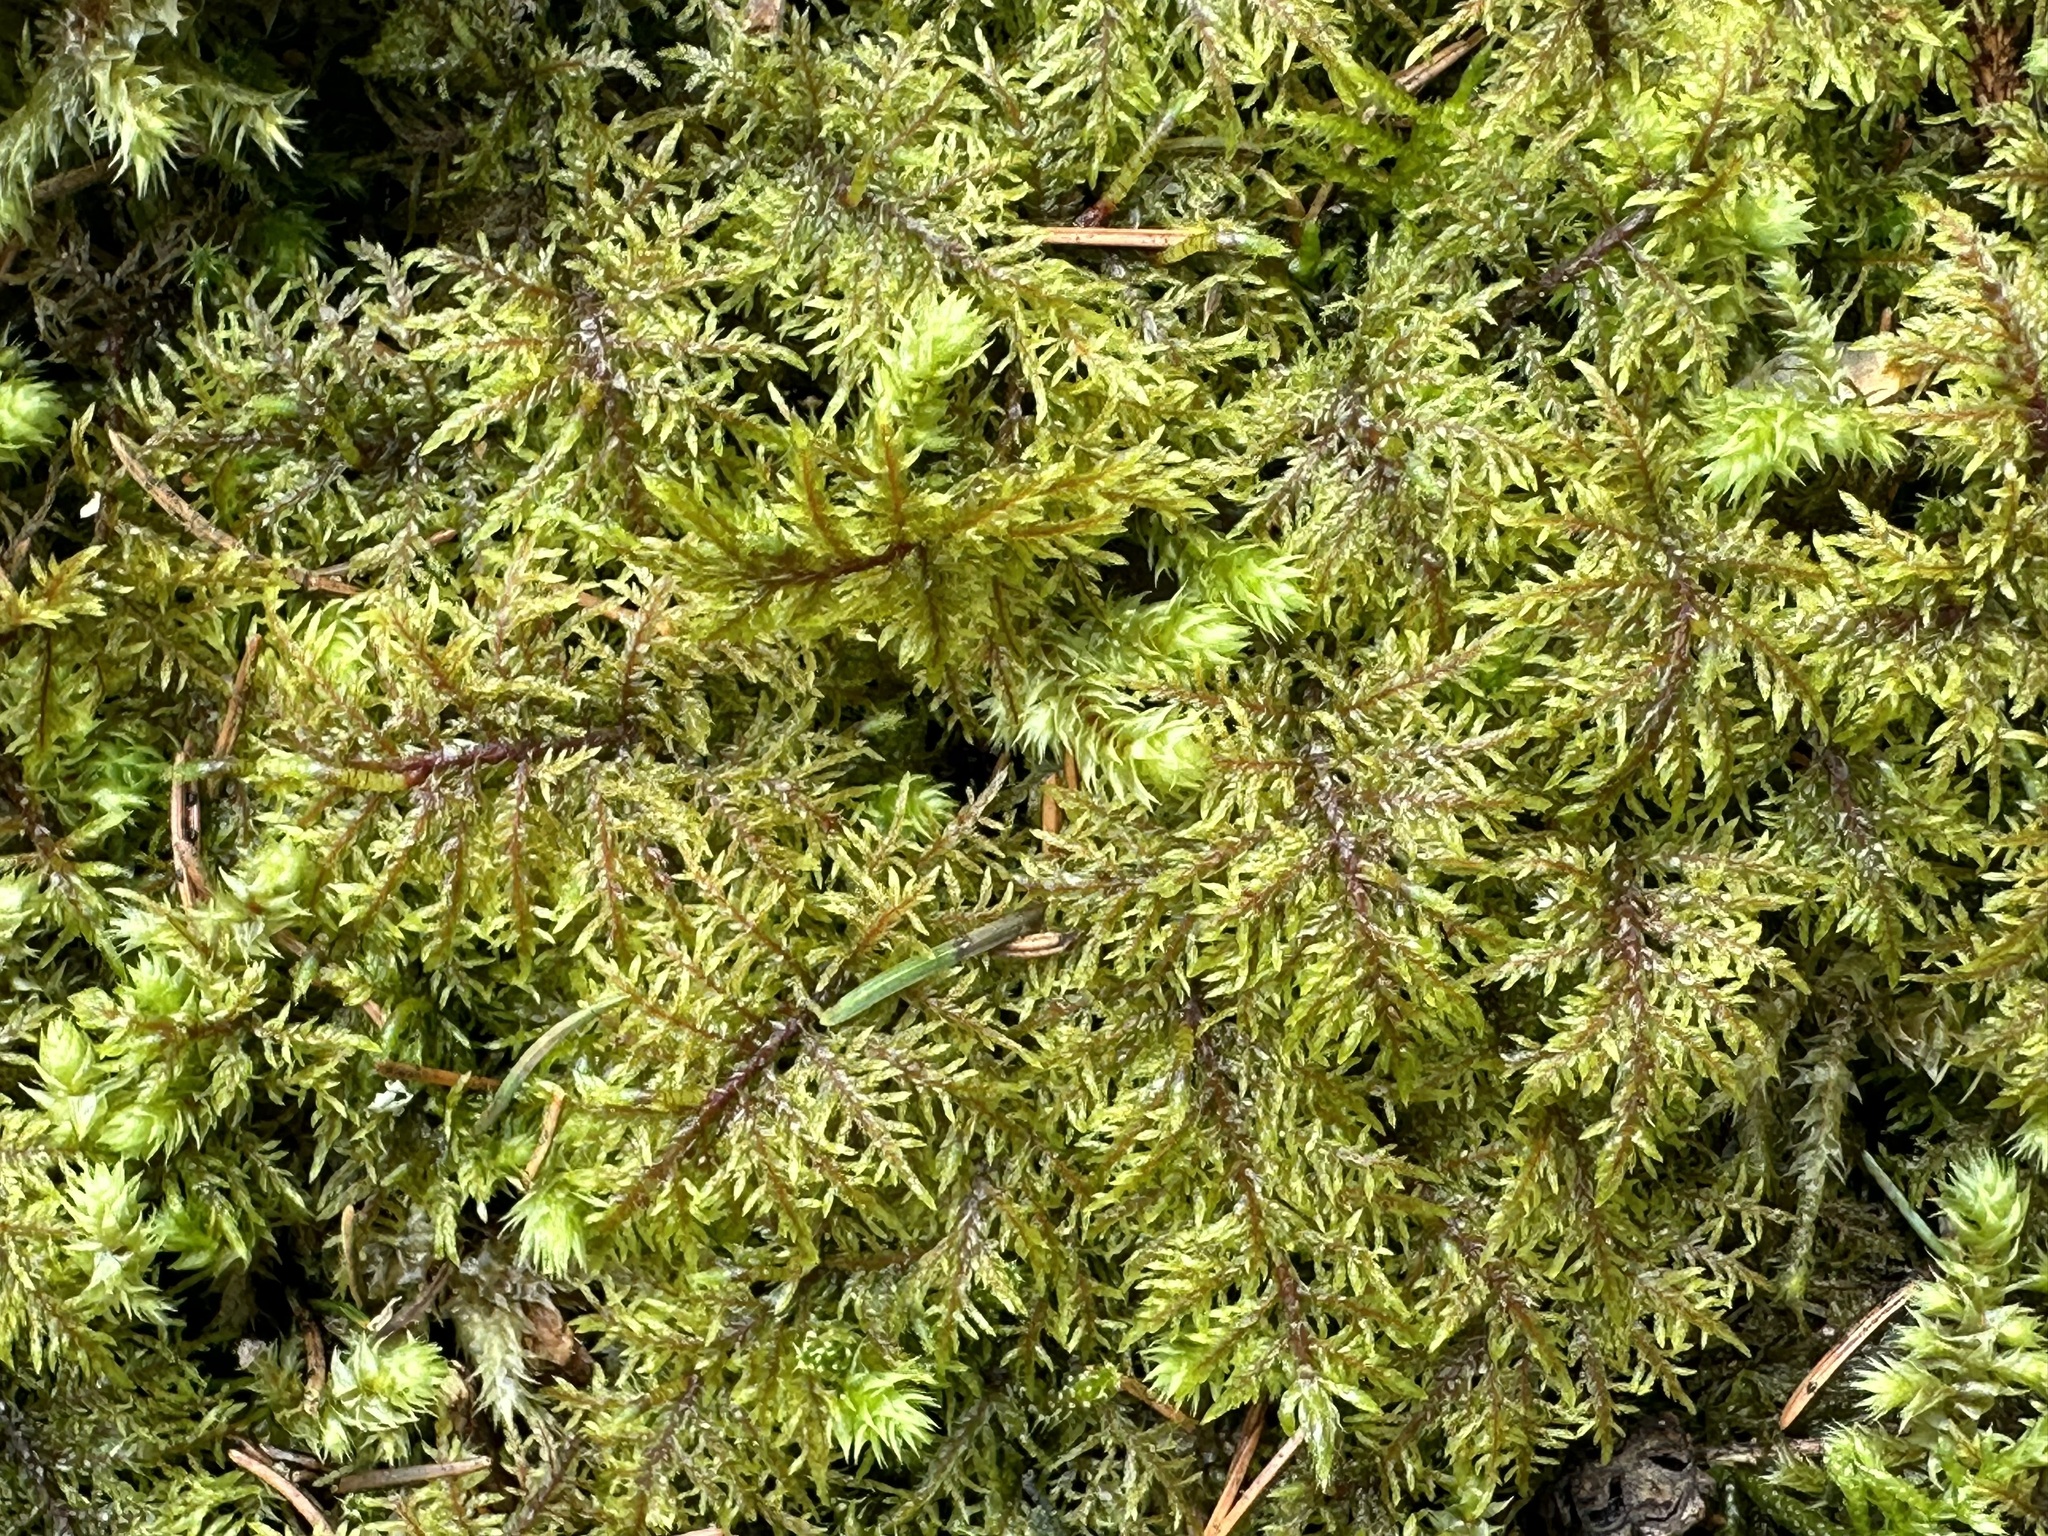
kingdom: Plantae
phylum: Bryophyta
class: Bryopsida
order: Hypnales
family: Hylocomiaceae
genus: Hylocomium
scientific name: Hylocomium splendens
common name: Stairstep moss
